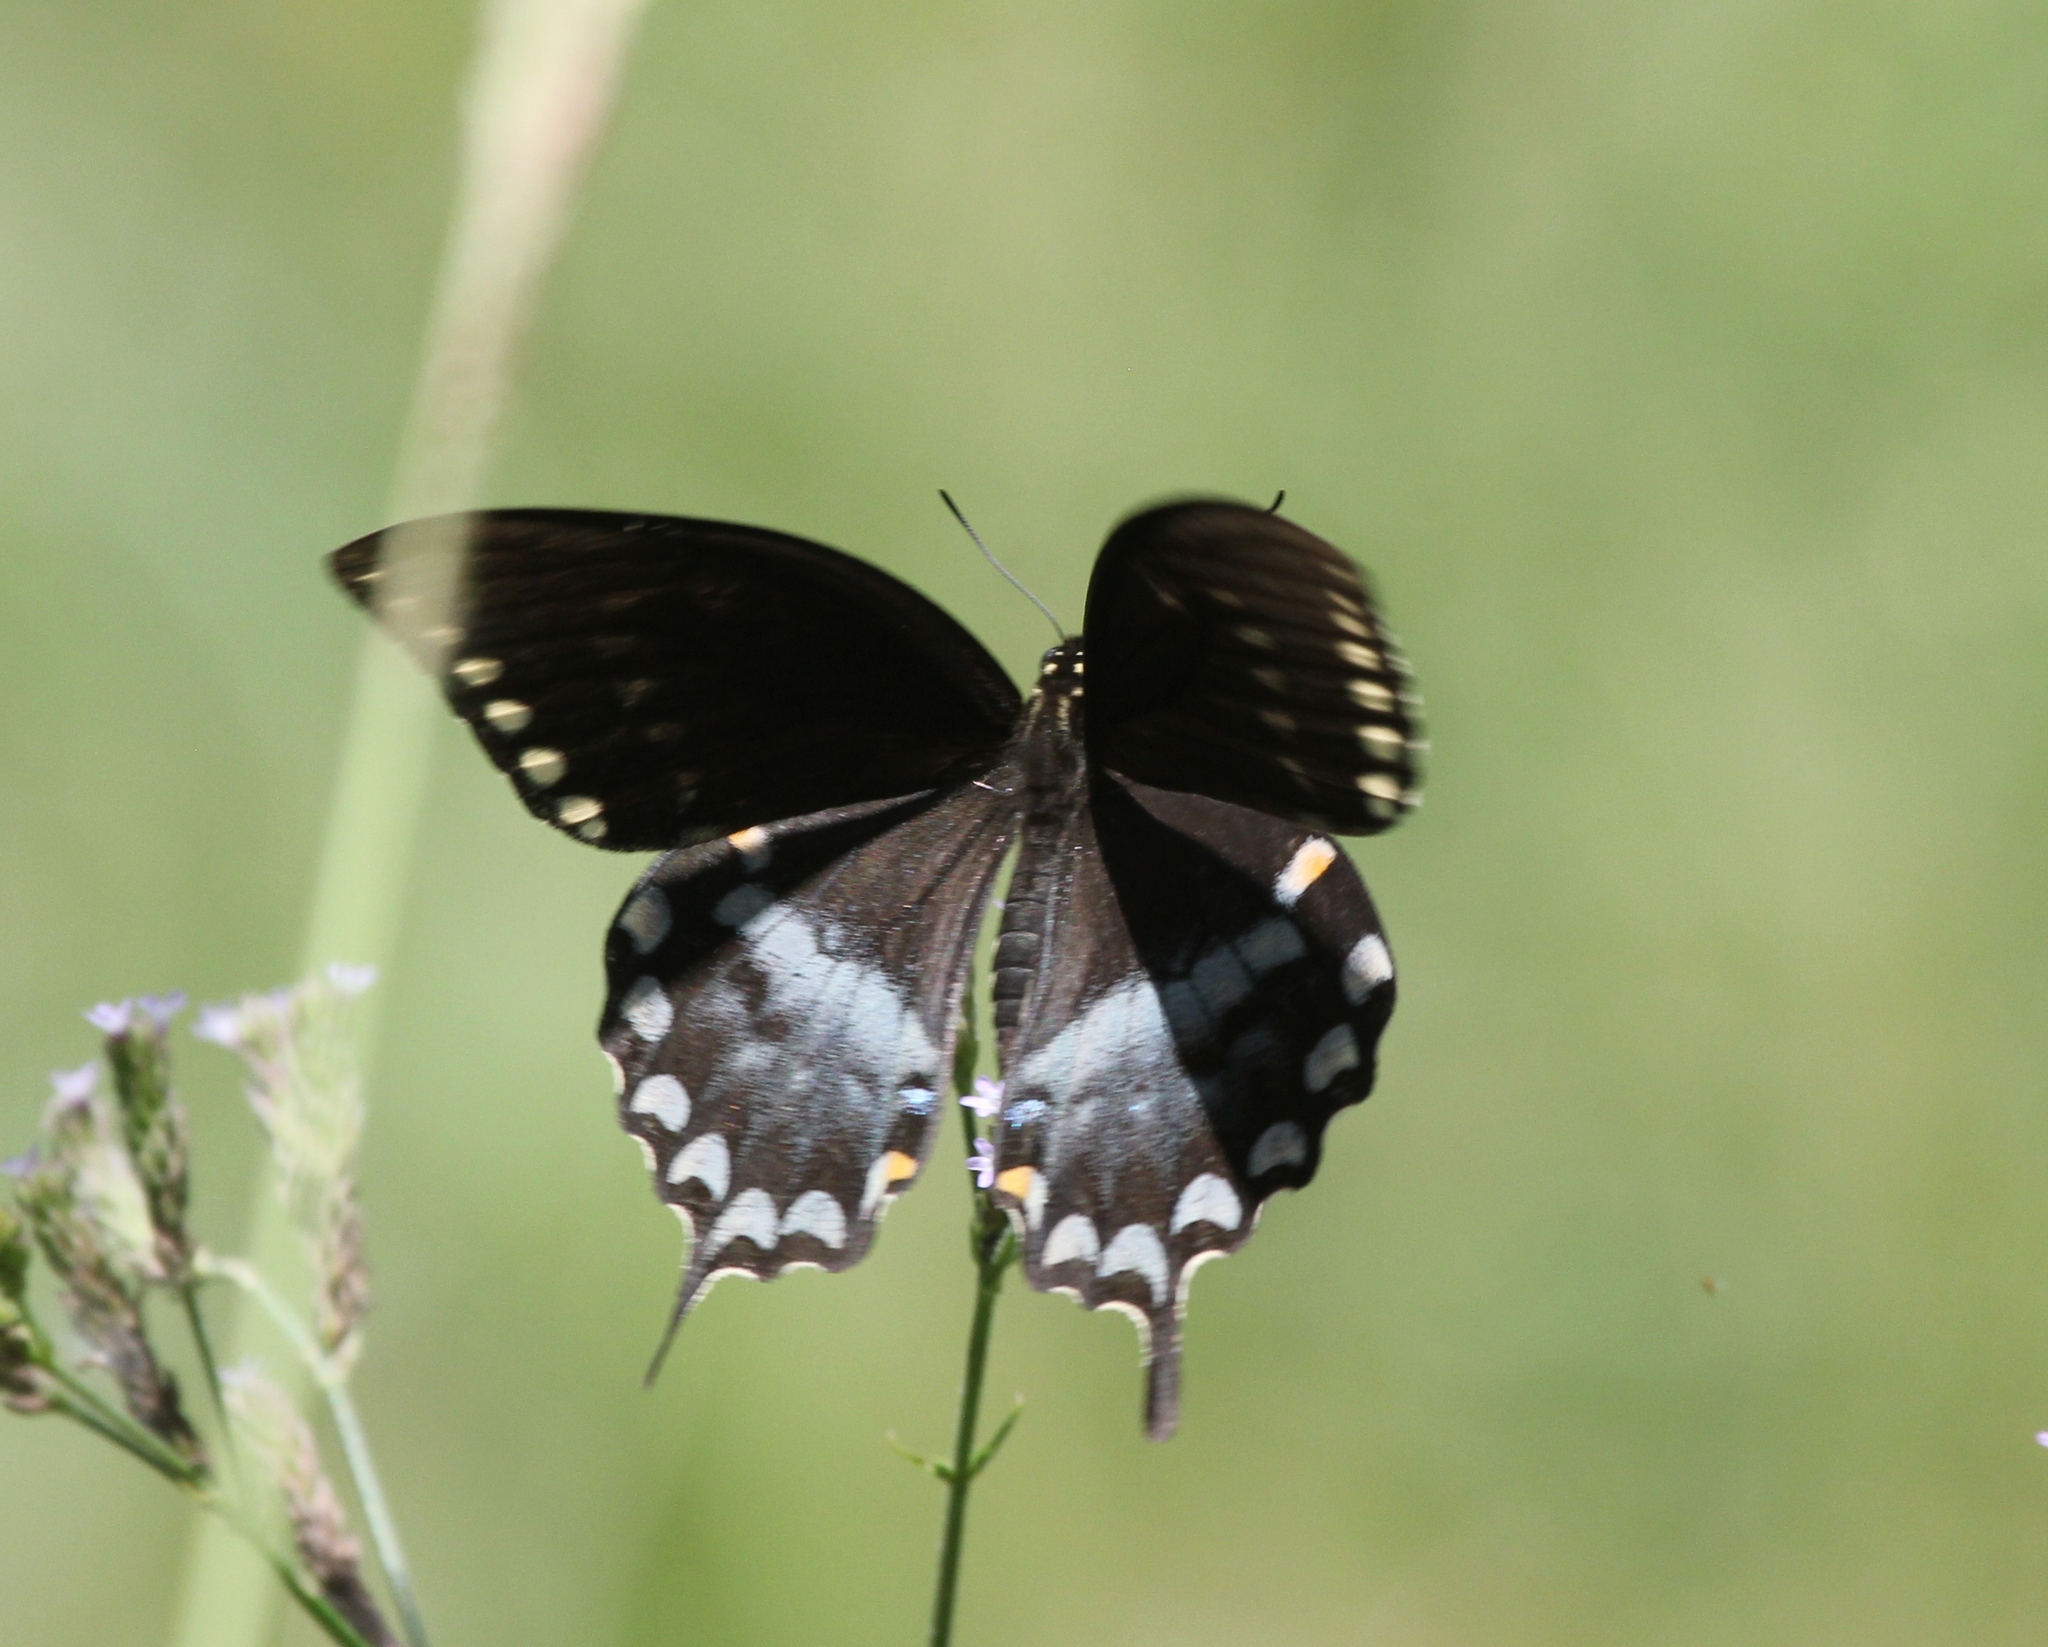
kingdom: Animalia
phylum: Arthropoda
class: Insecta
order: Lepidoptera
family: Papilionidae
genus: Papilio
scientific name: Papilio troilus
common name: Spicebush swallowtail
